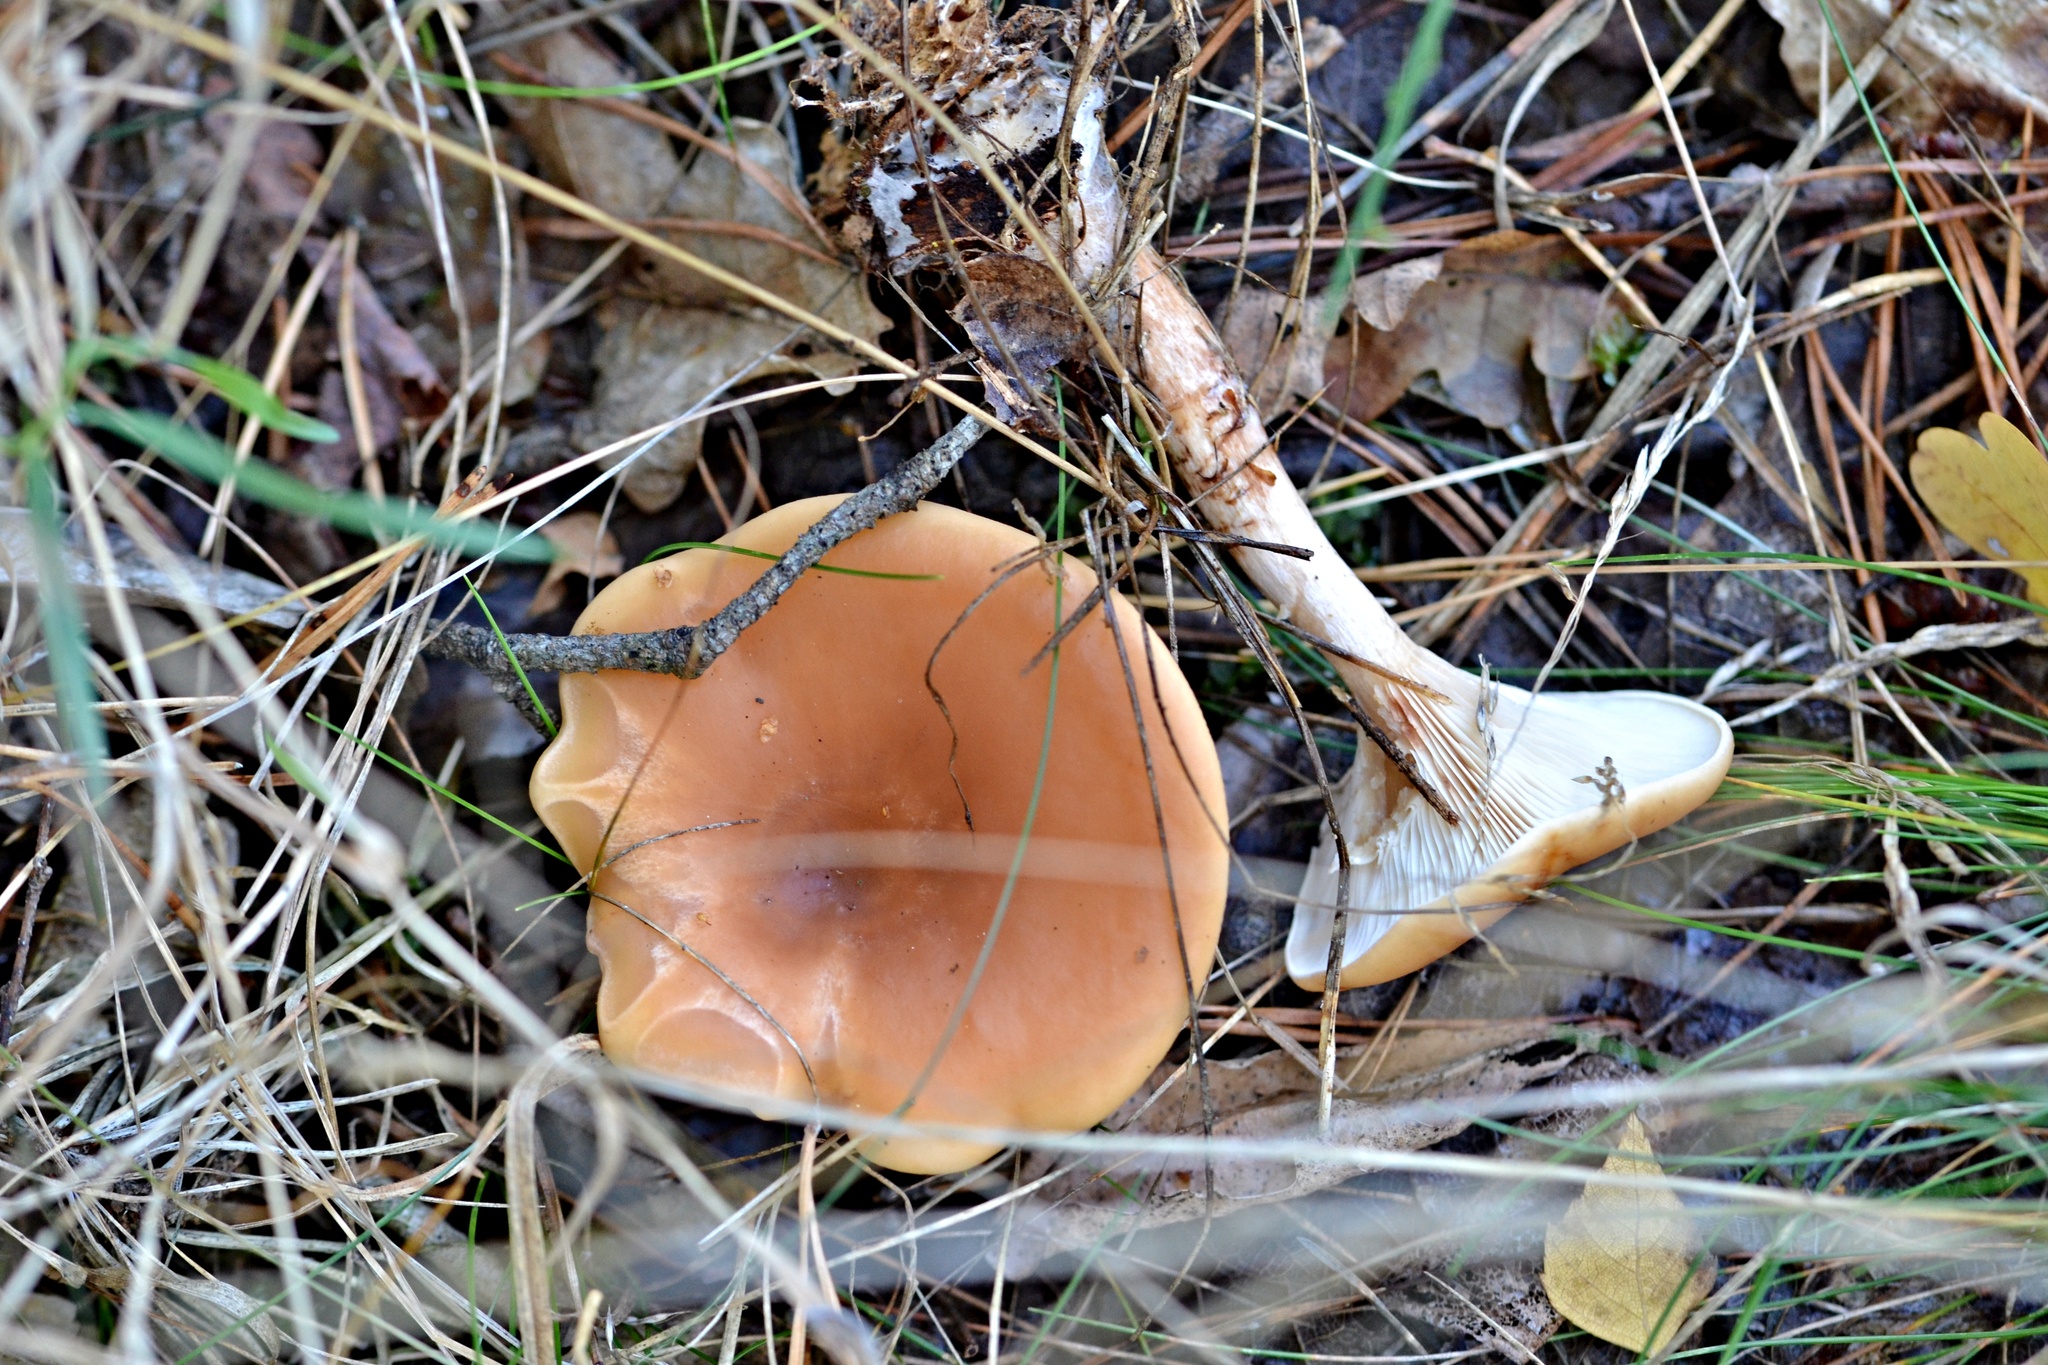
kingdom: Fungi
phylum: Basidiomycota
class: Agaricomycetes
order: Agaricales
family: Tricholomataceae
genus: Paralepista
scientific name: Paralepista flaccida
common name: Tawny funnel cap
